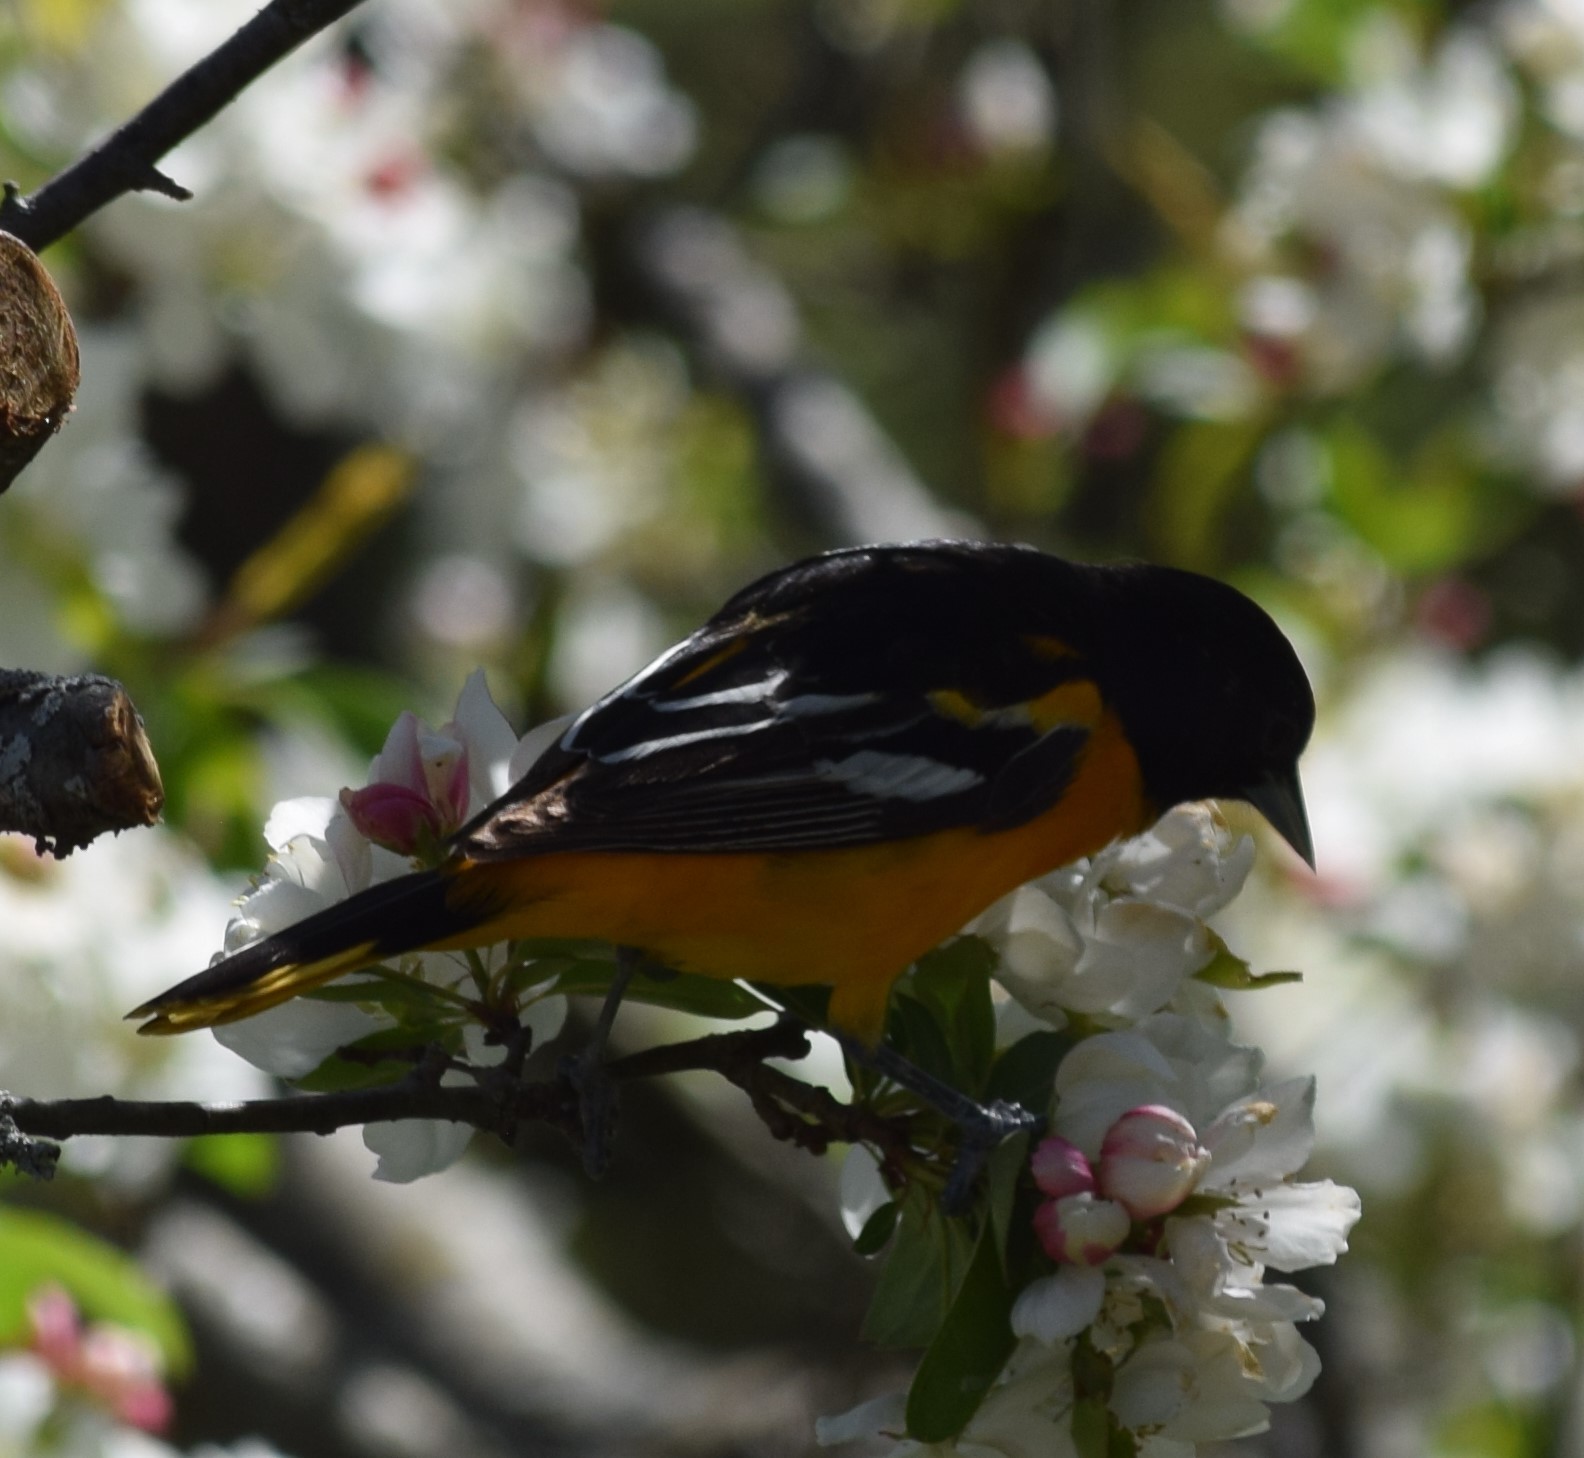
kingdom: Animalia
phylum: Chordata
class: Aves
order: Passeriformes
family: Icteridae
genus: Icterus
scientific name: Icterus galbula
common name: Baltimore oriole
